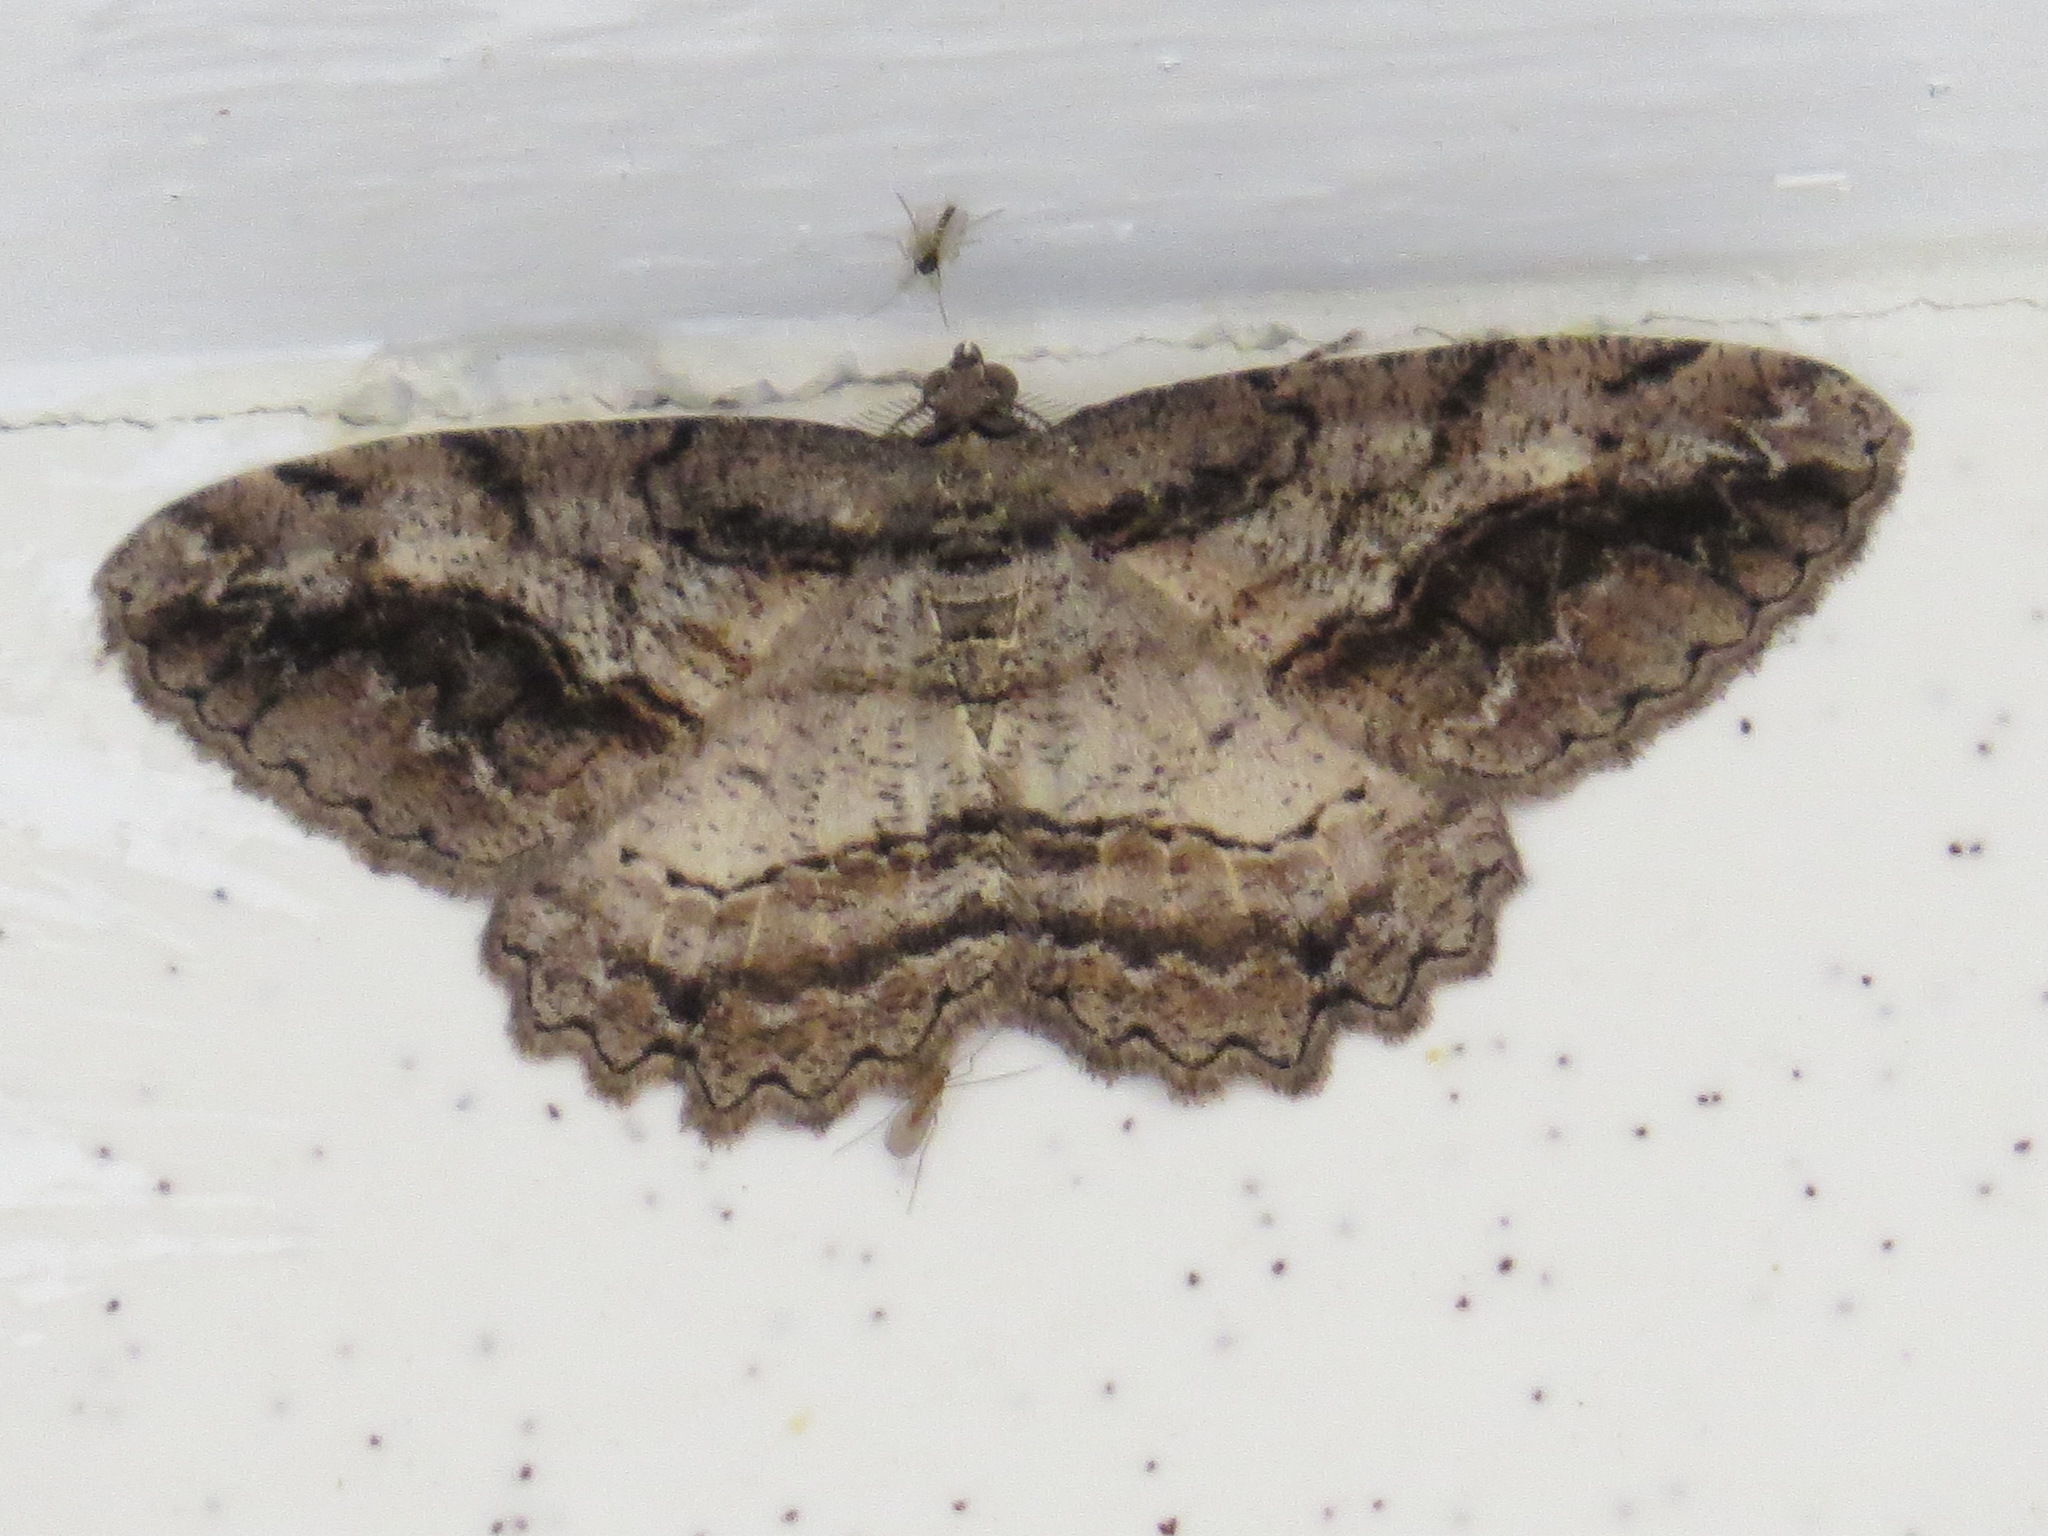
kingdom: Animalia
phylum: Arthropoda
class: Insecta
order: Lepidoptera
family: Geometridae
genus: Neoalcis
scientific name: Neoalcis californiaria
